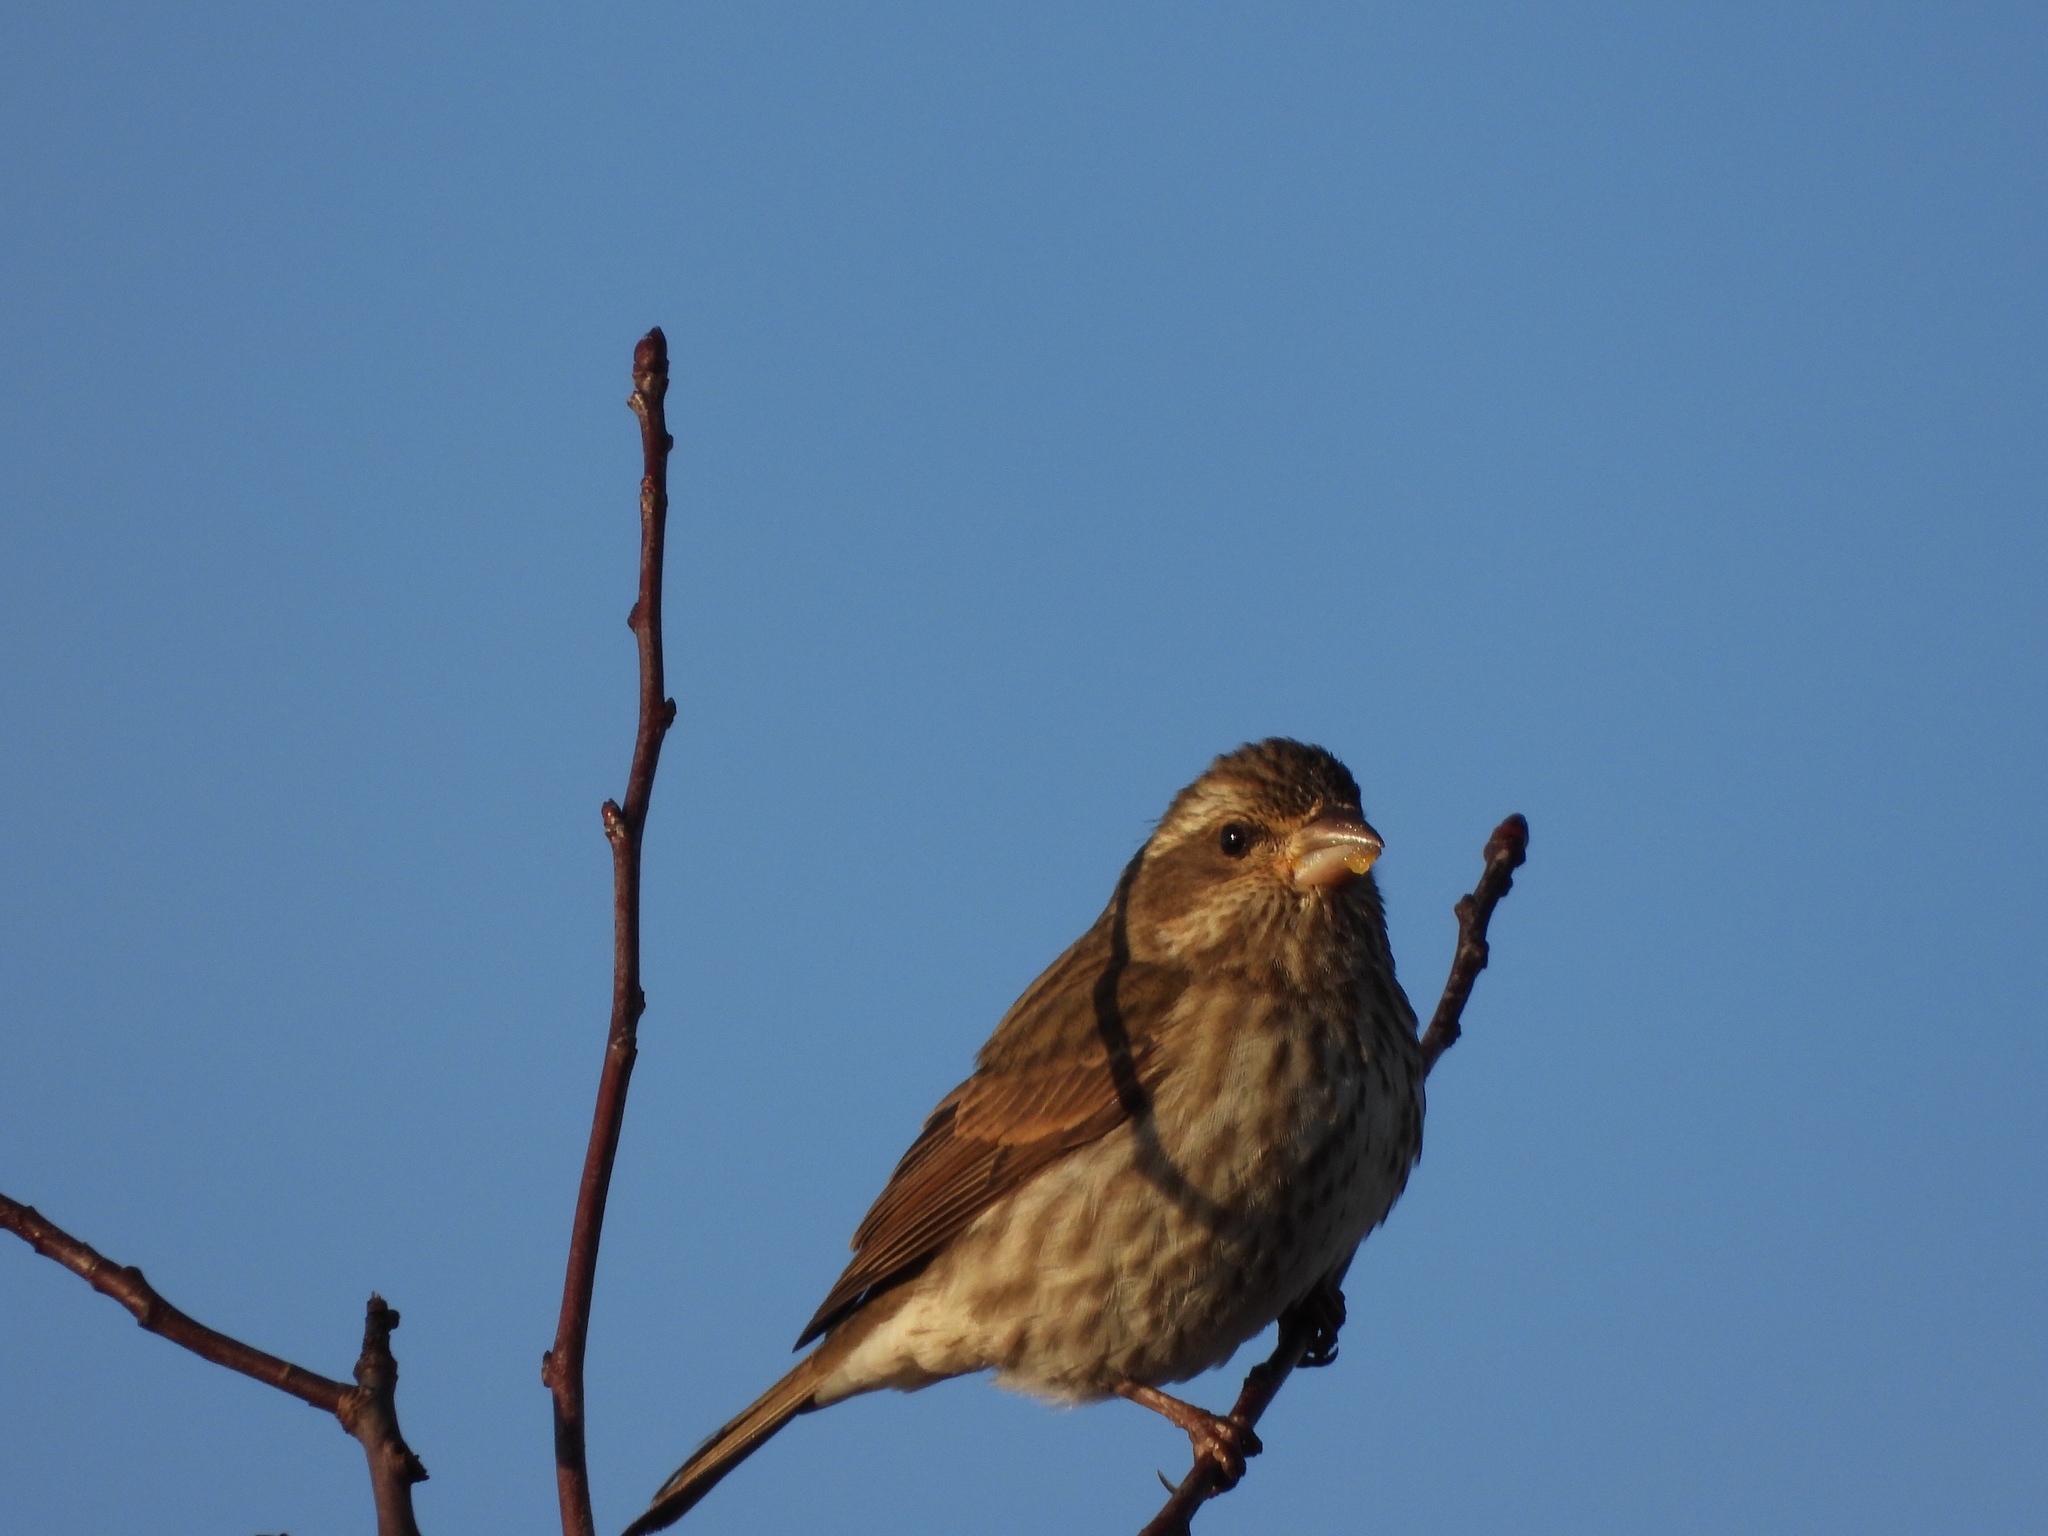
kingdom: Animalia
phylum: Chordata
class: Aves
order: Passeriformes
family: Fringillidae
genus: Haemorhous
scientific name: Haemorhous purpureus
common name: Purple finch
